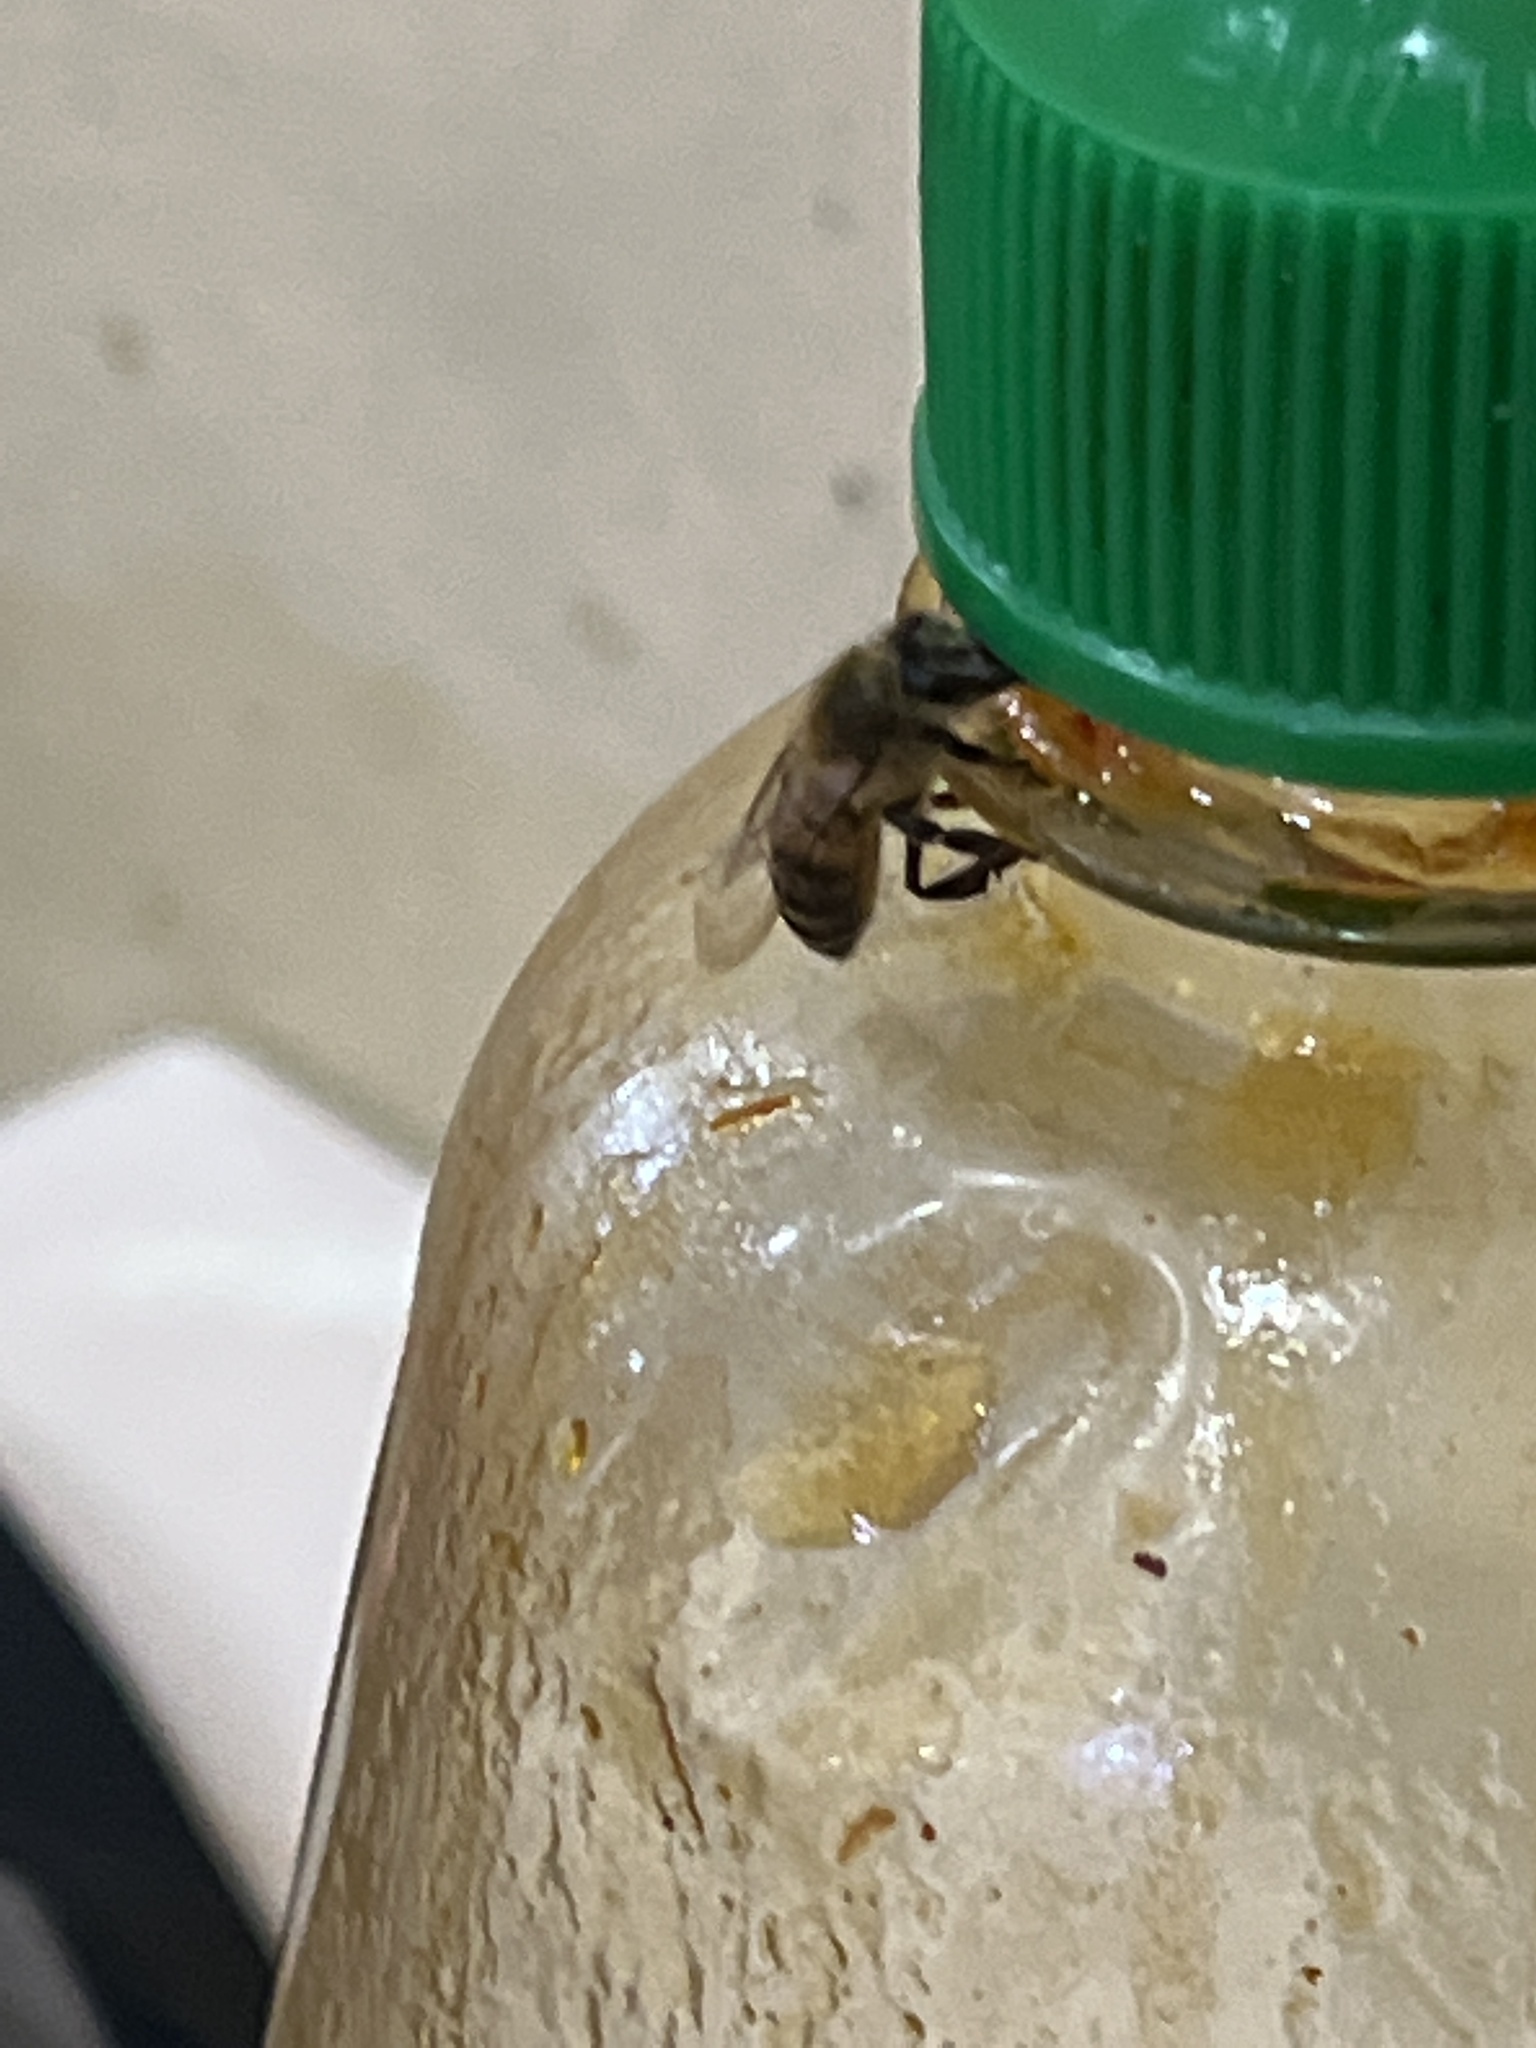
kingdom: Animalia
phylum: Arthropoda
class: Insecta
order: Hymenoptera
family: Apidae
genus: Apis
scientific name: Apis mellifera
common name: Honey bee
